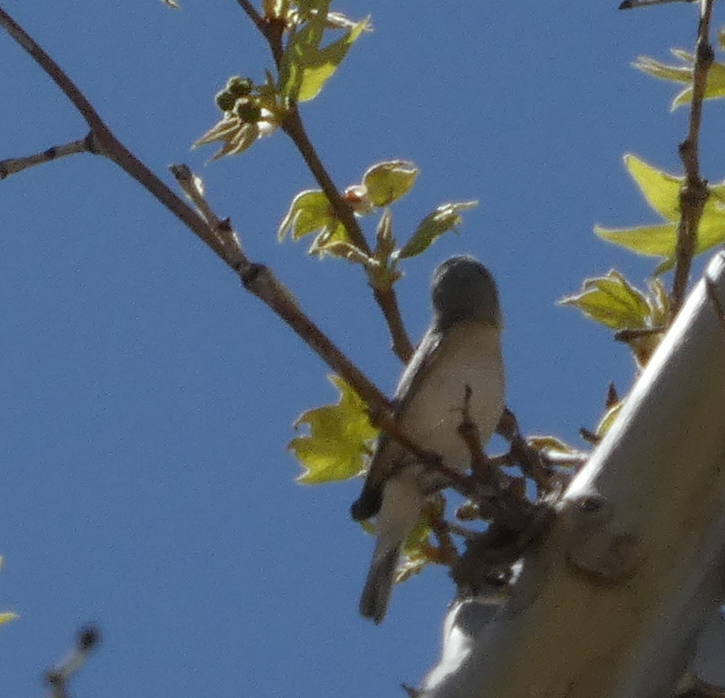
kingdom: Animalia
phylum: Chordata
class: Aves
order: Passeriformes
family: Parulidae
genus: Leiothlypis
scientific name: Leiothlypis luciae
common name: Lucy's warbler
